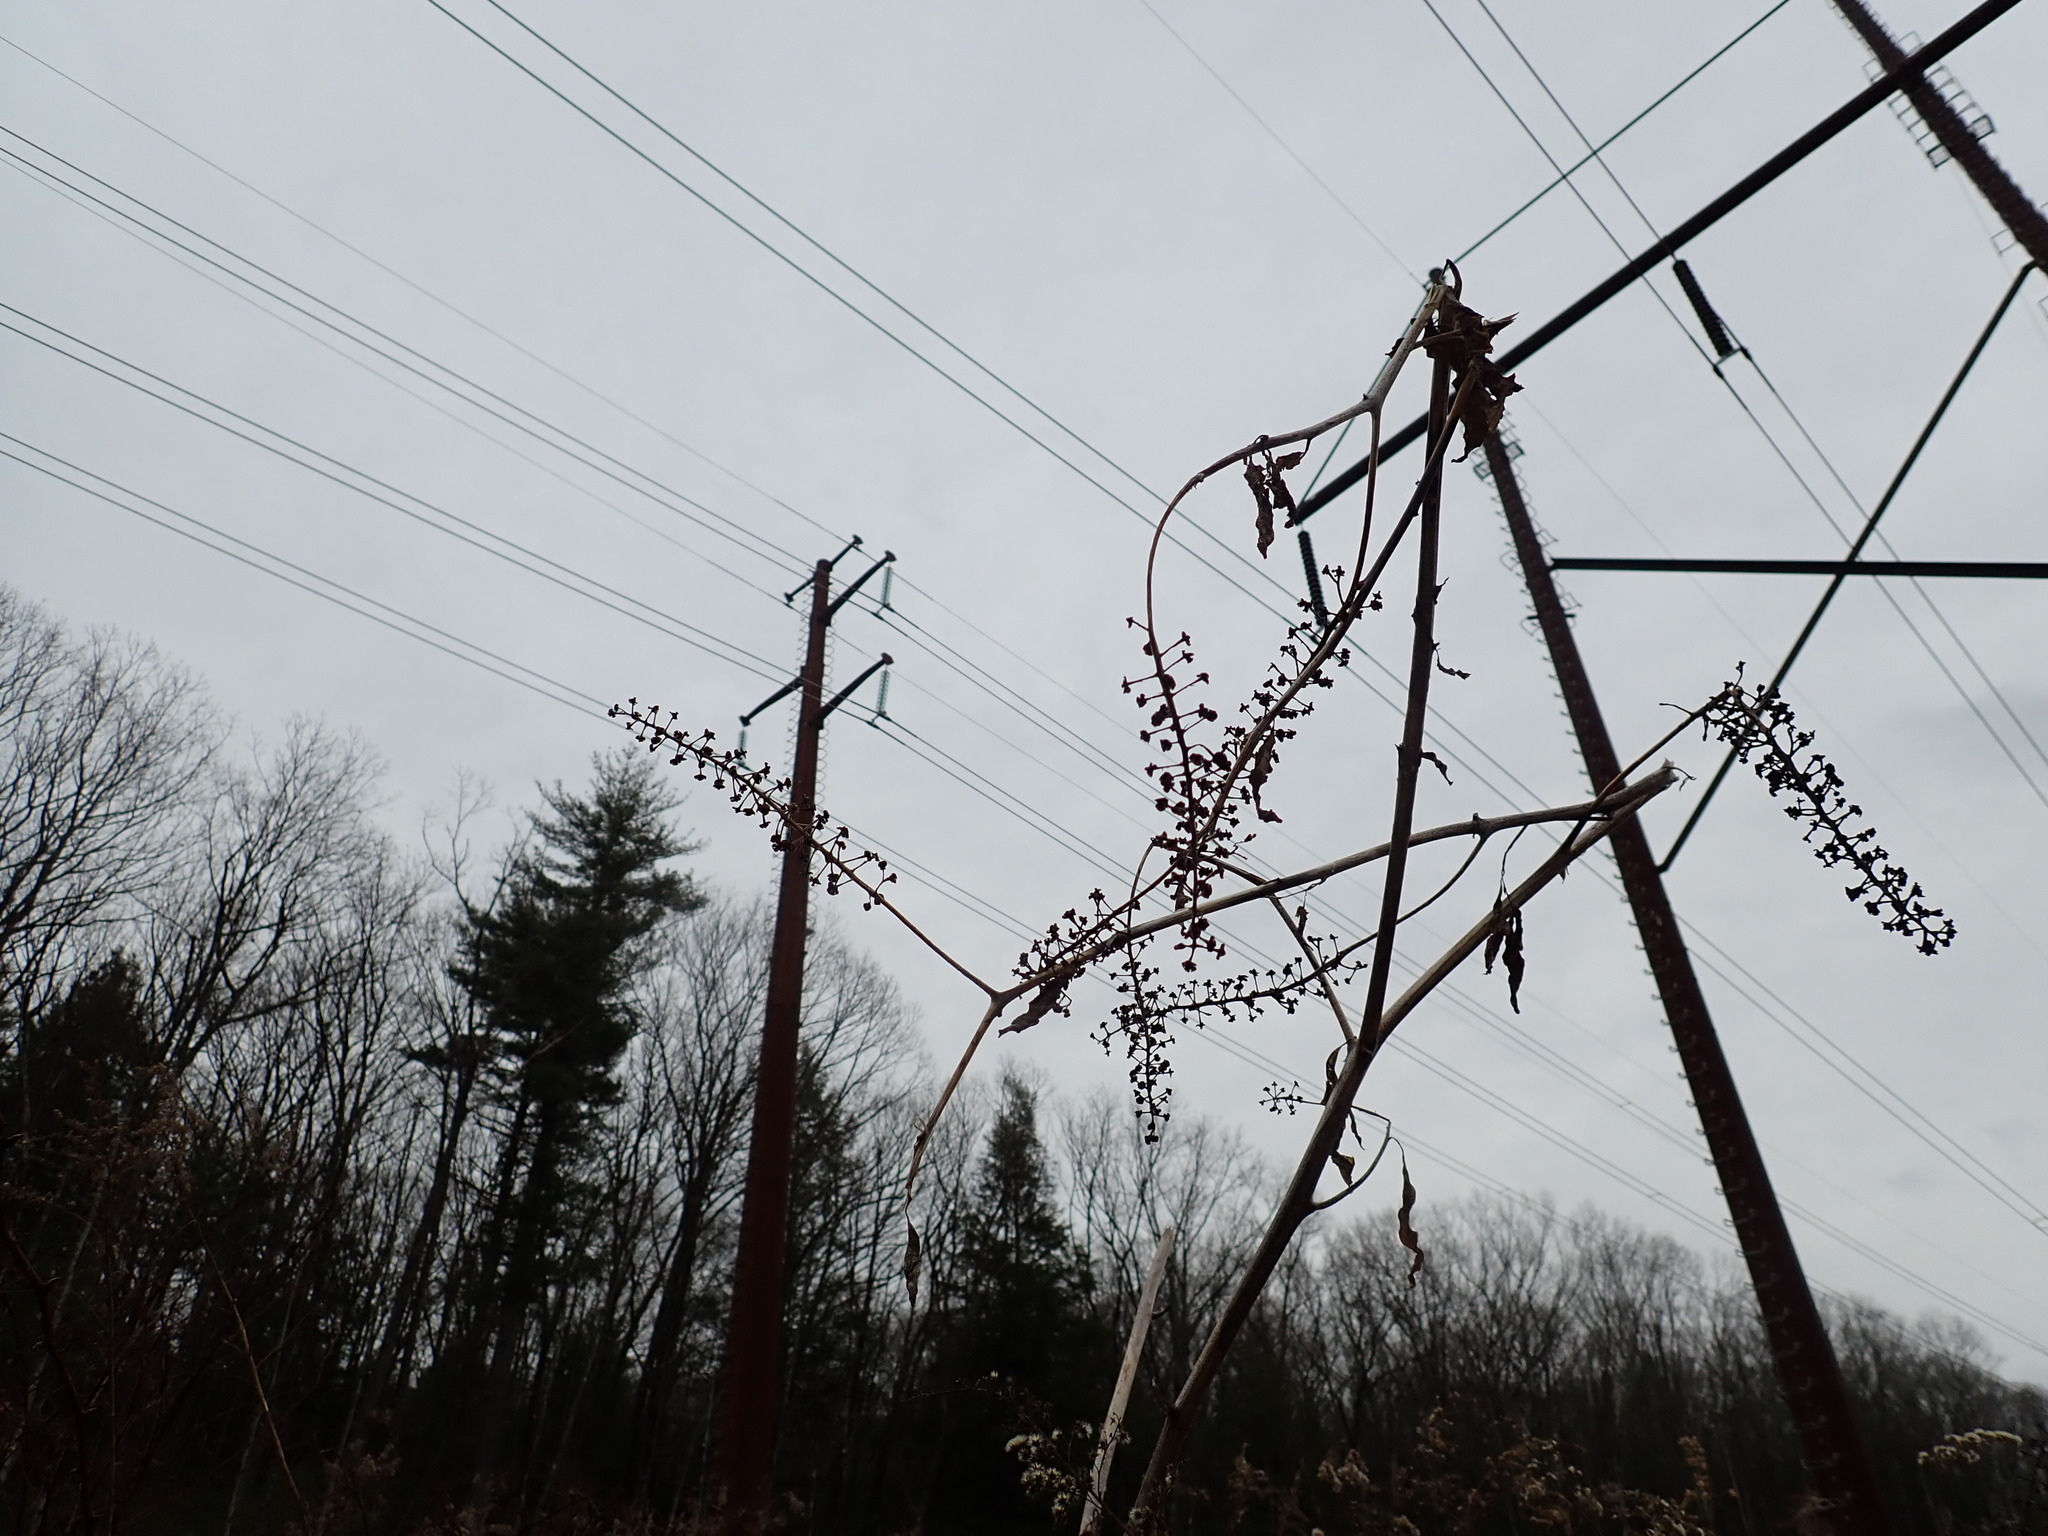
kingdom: Plantae
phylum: Tracheophyta
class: Magnoliopsida
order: Caryophyllales
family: Phytolaccaceae
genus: Phytolacca
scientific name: Phytolacca americana
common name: American pokeweed
